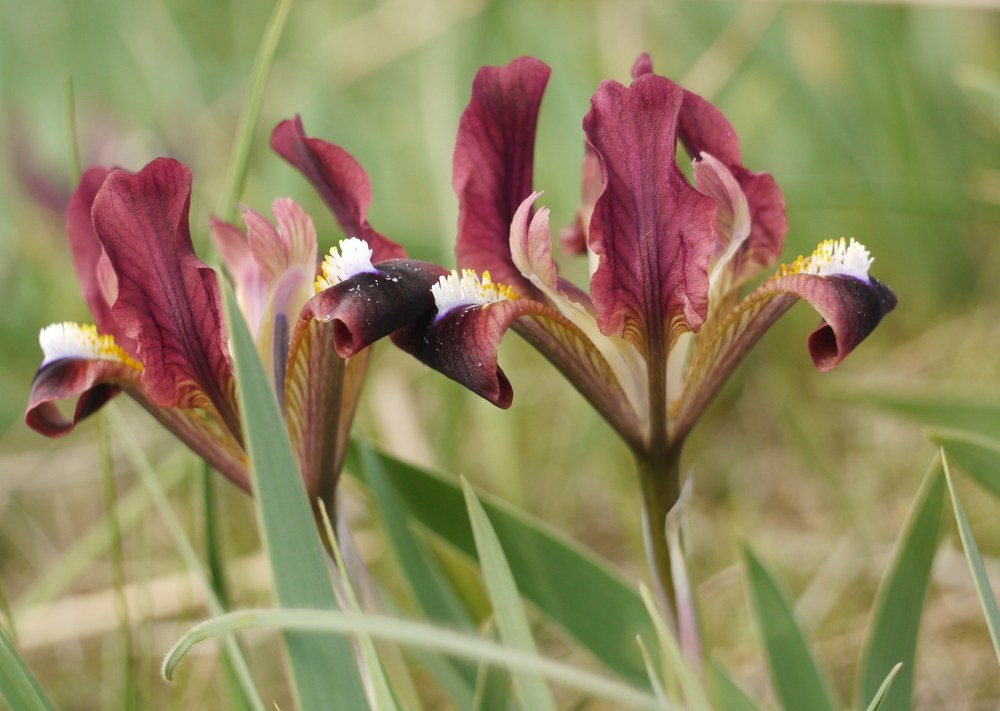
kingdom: Plantae
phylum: Tracheophyta
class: Liliopsida
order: Asparagales
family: Iridaceae
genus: Iris
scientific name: Iris pumila
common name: Dwarf iris
